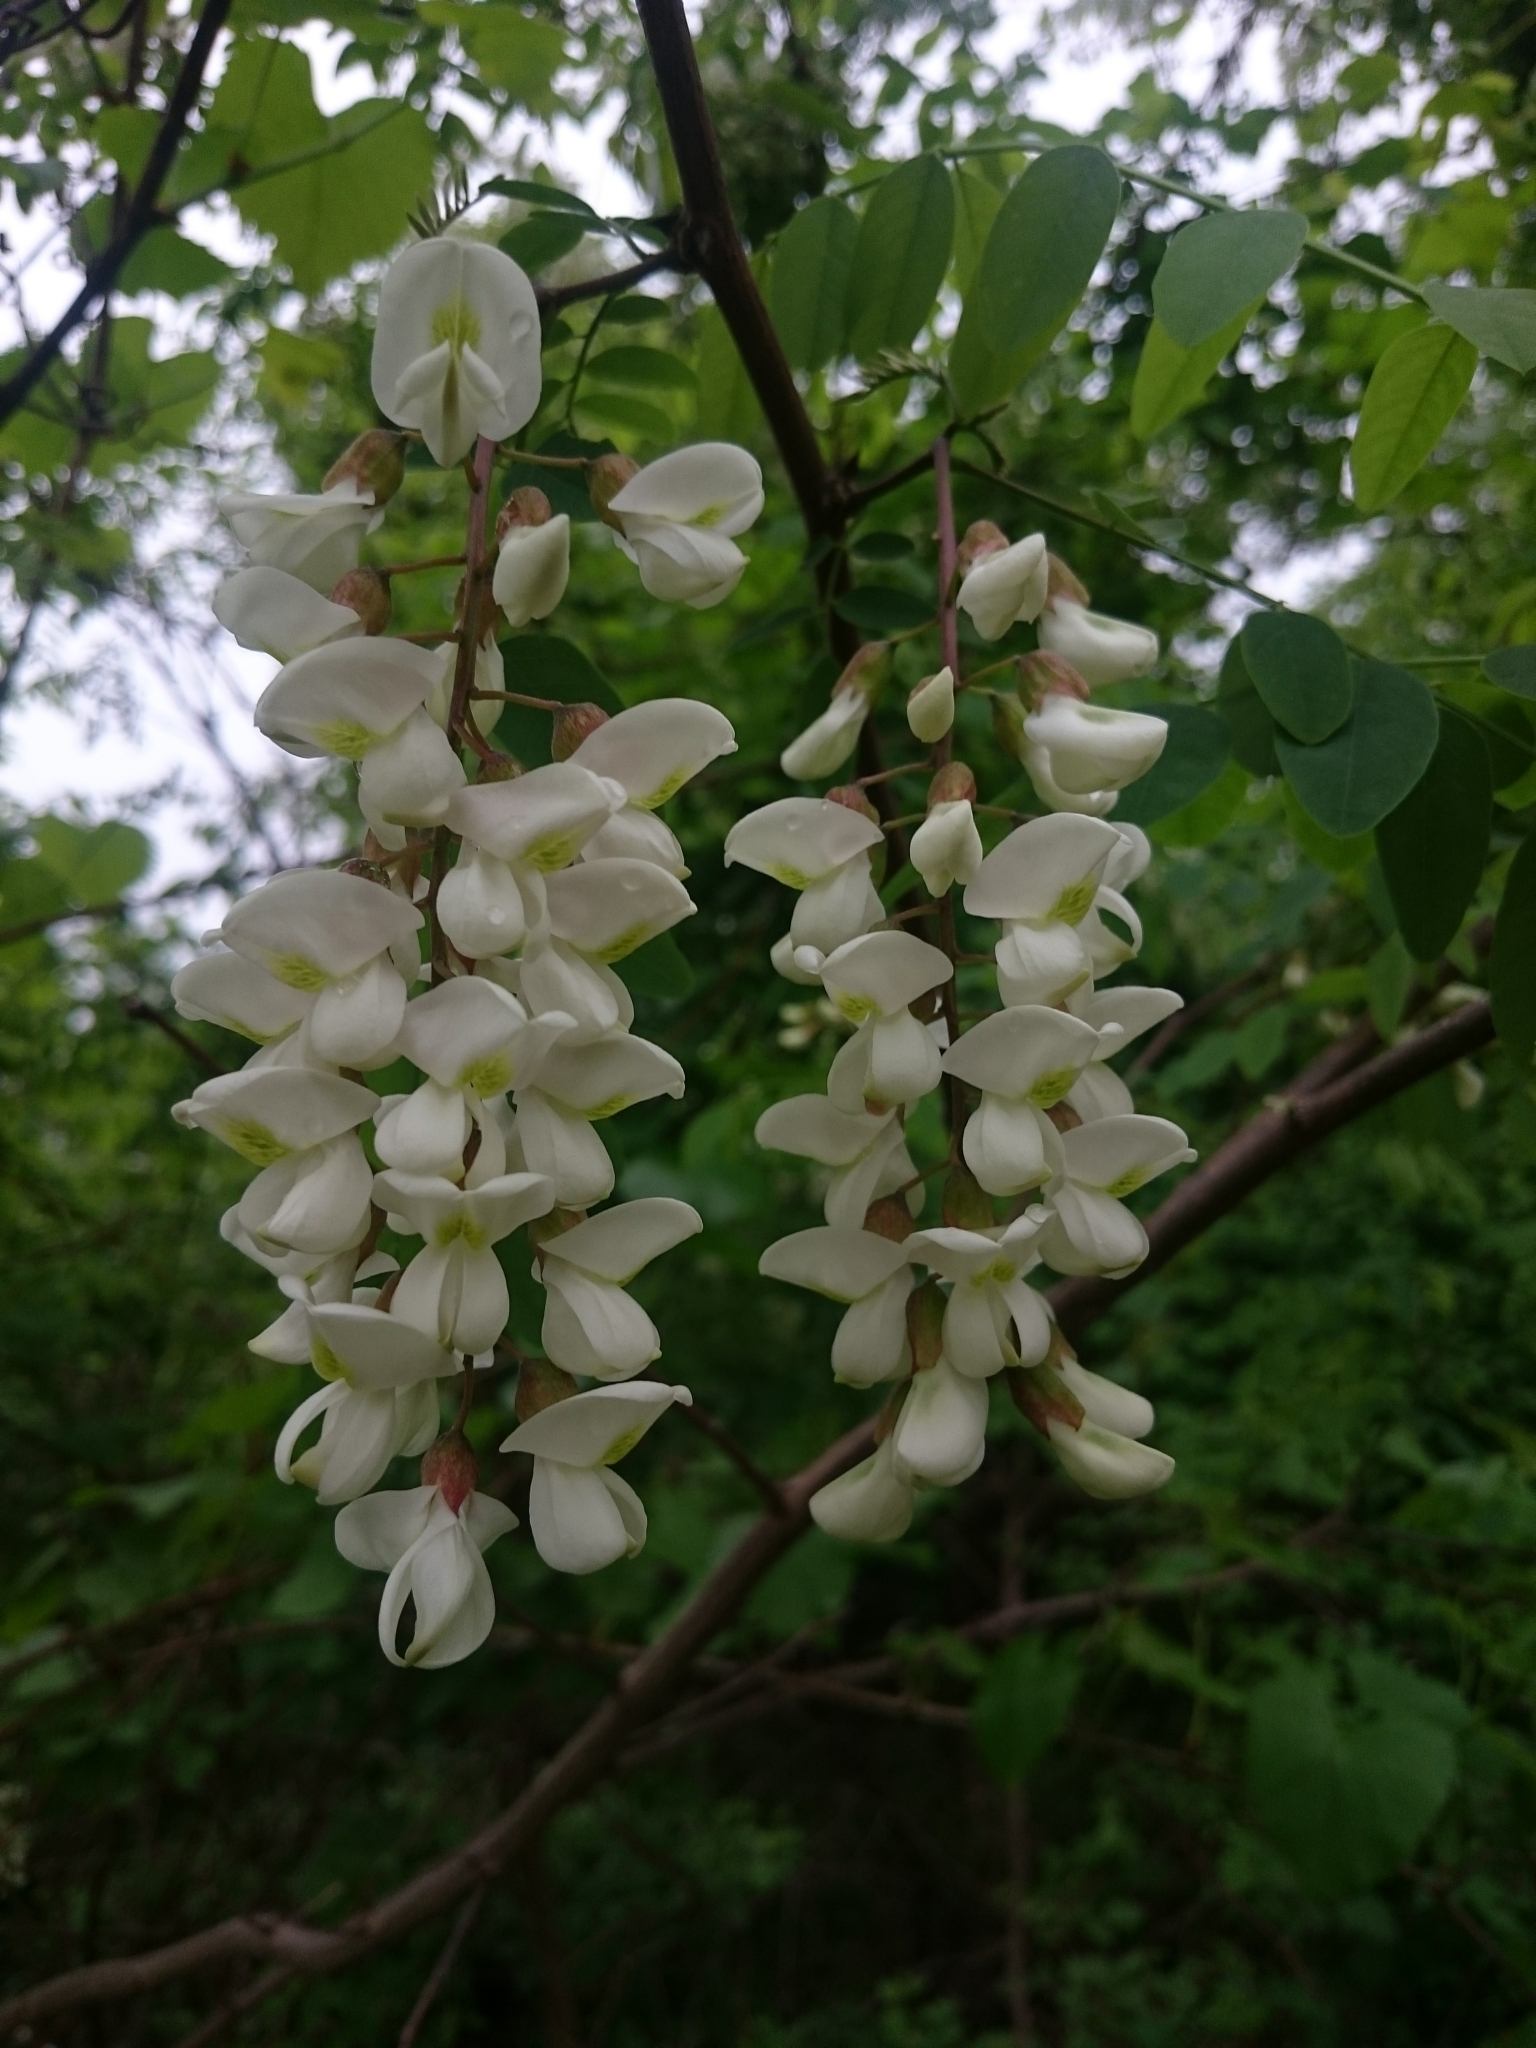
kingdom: Plantae
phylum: Tracheophyta
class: Magnoliopsida
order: Fabales
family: Fabaceae
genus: Robinia
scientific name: Robinia pseudoacacia
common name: Black locust
